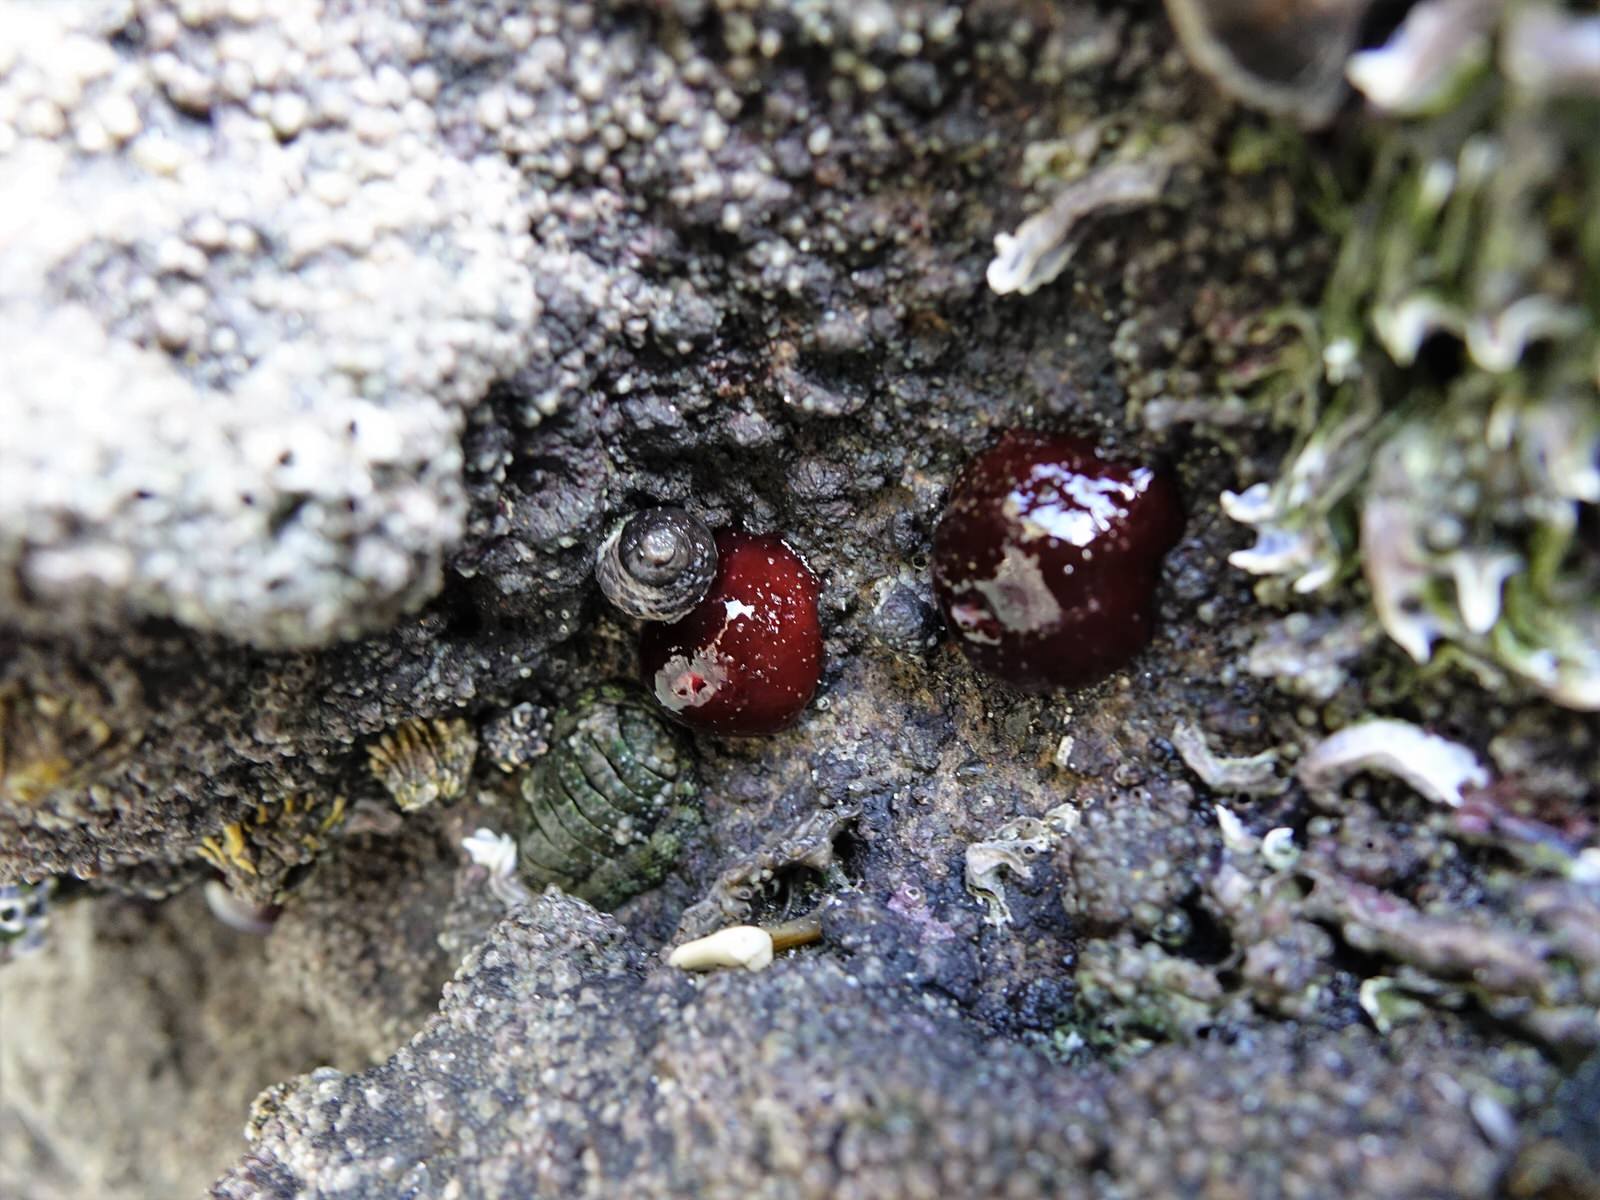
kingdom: Animalia
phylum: Cnidaria
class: Anthozoa
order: Actiniaria
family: Actiniidae
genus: Actinia
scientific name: Actinia tenebrosa
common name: Waratah anemone
